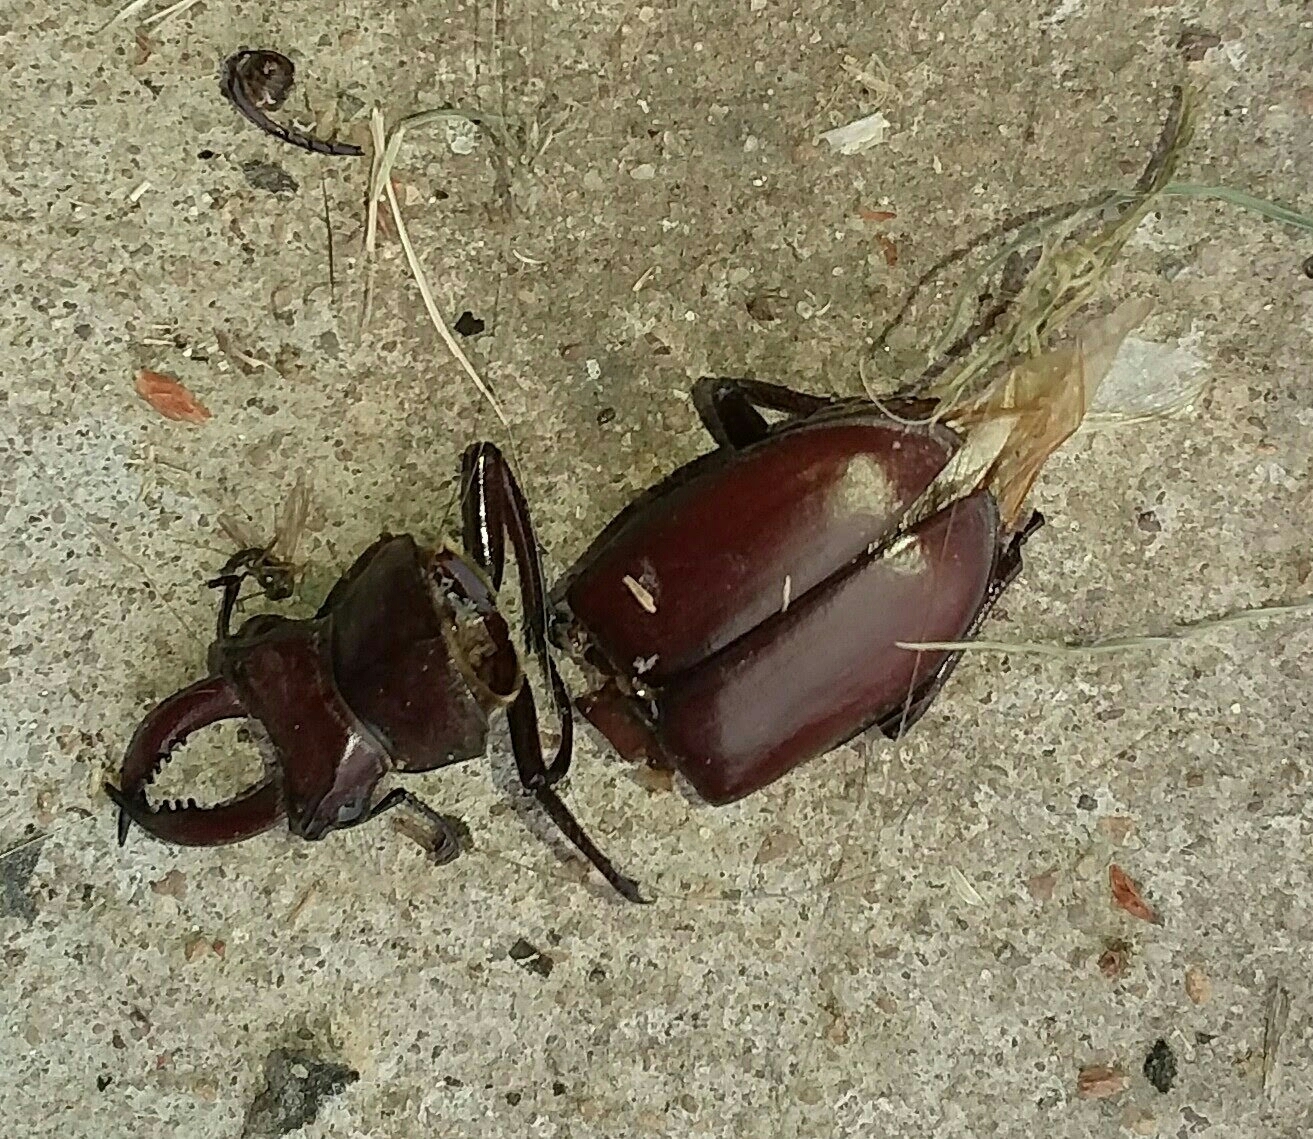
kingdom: Animalia
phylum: Arthropoda
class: Insecta
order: Coleoptera
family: Lucanidae
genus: Lucanus
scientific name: Lucanus elaphus
